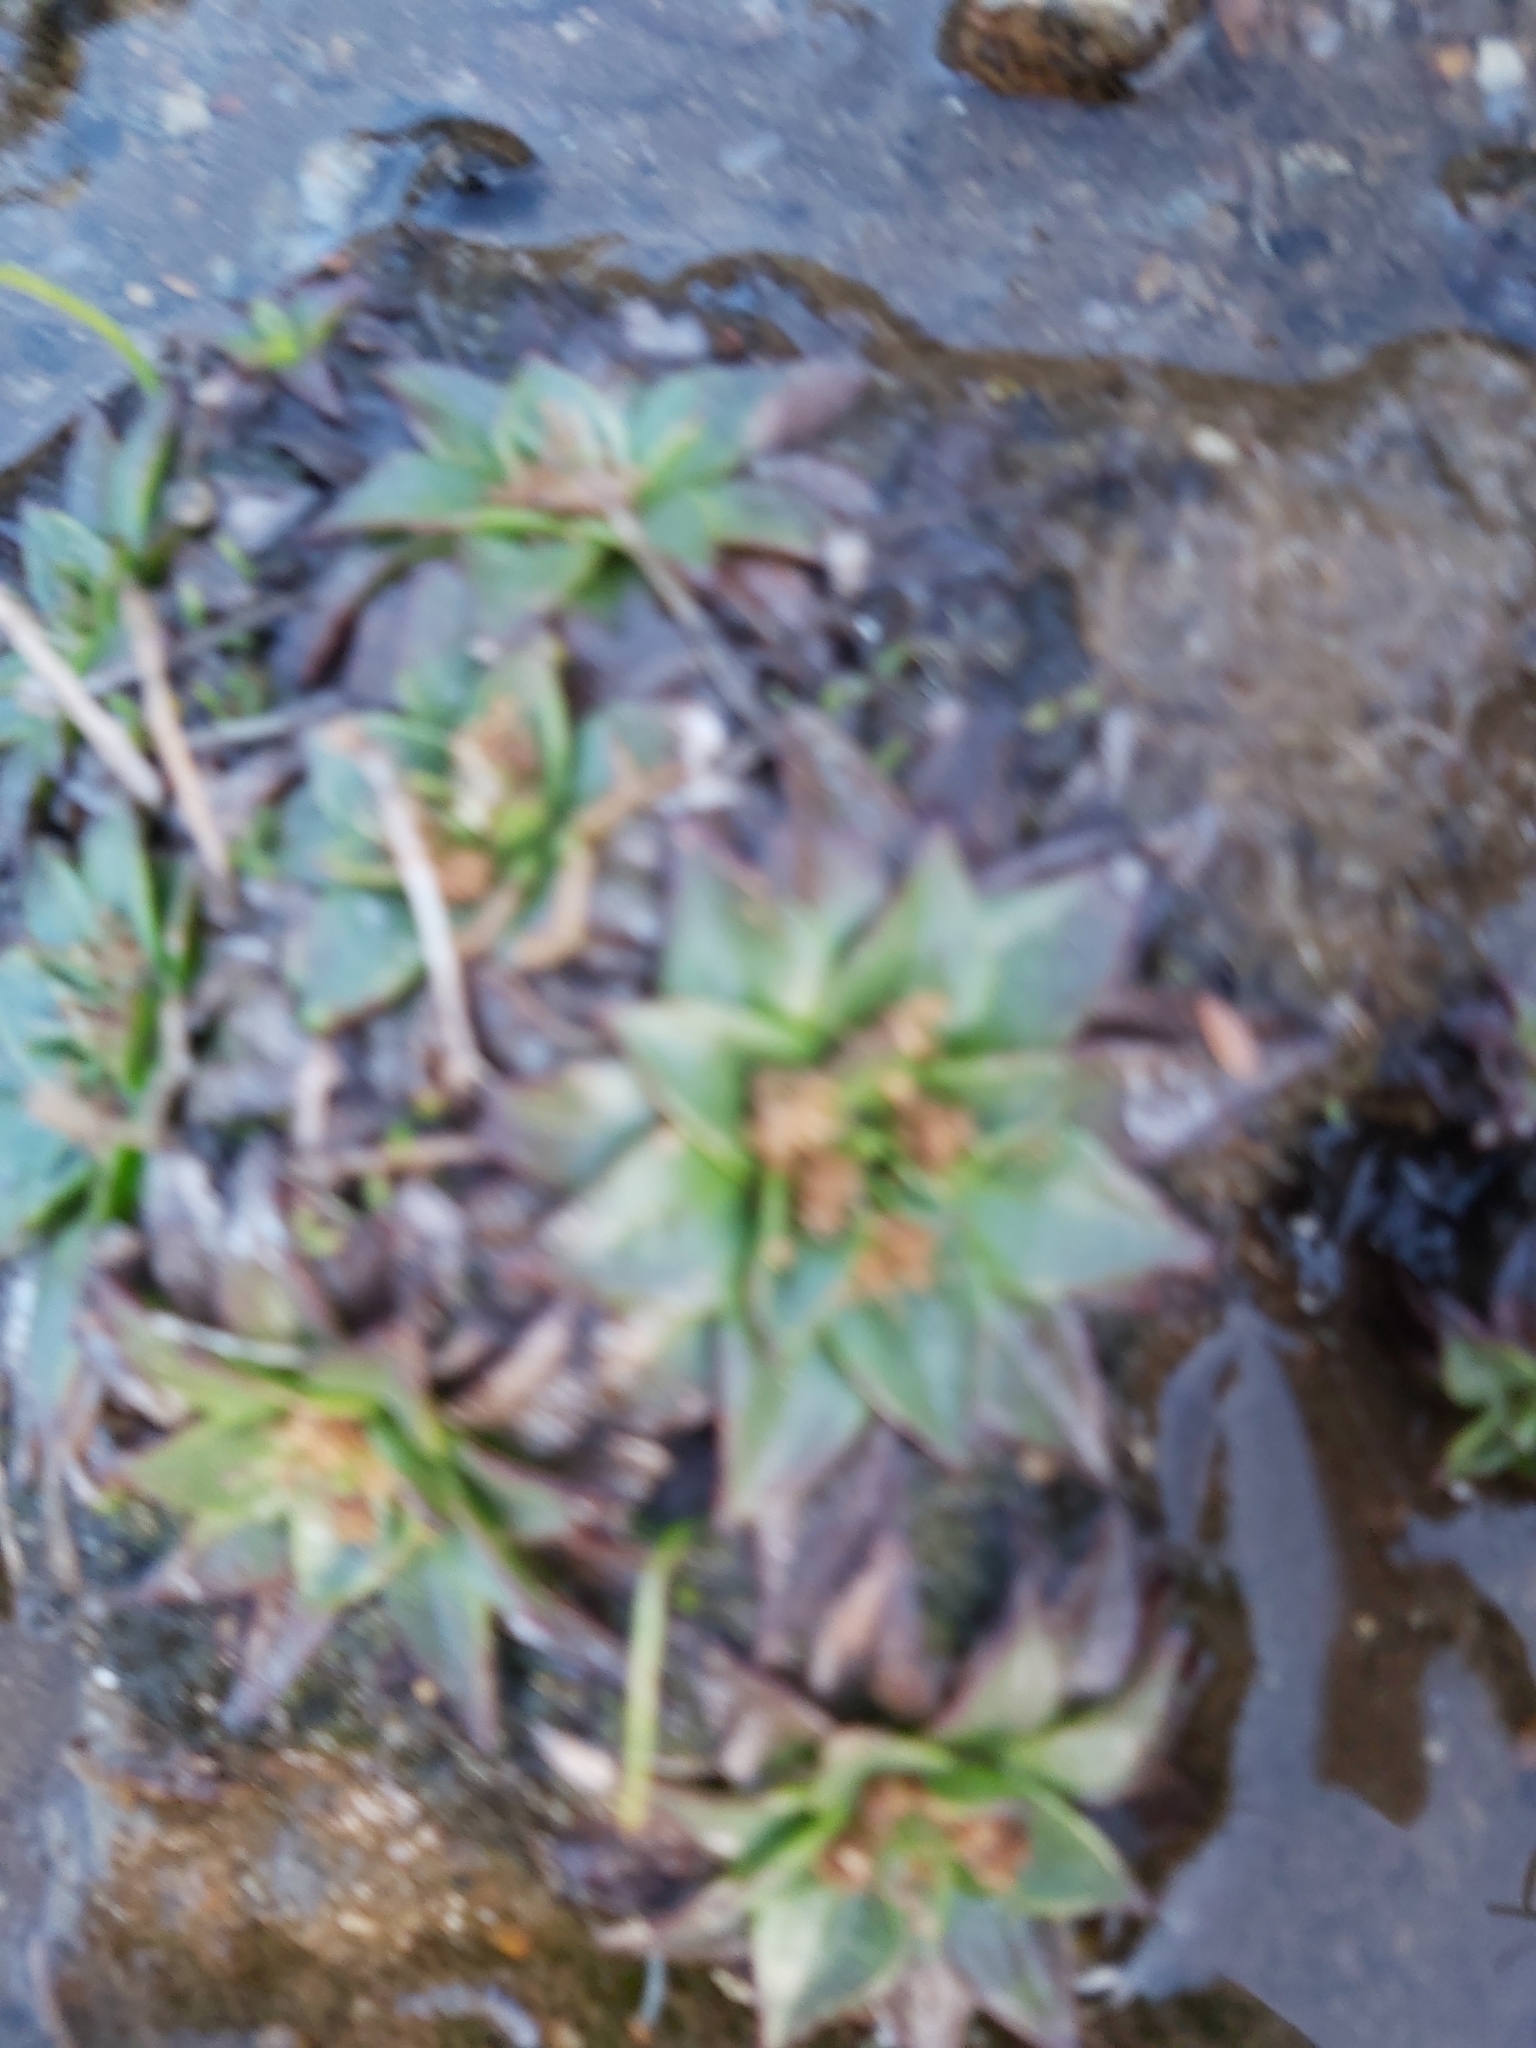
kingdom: Plantae
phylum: Tracheophyta
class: Magnoliopsida
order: Lamiales
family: Plantaginaceae
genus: Plantago
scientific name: Plantago muelleri
